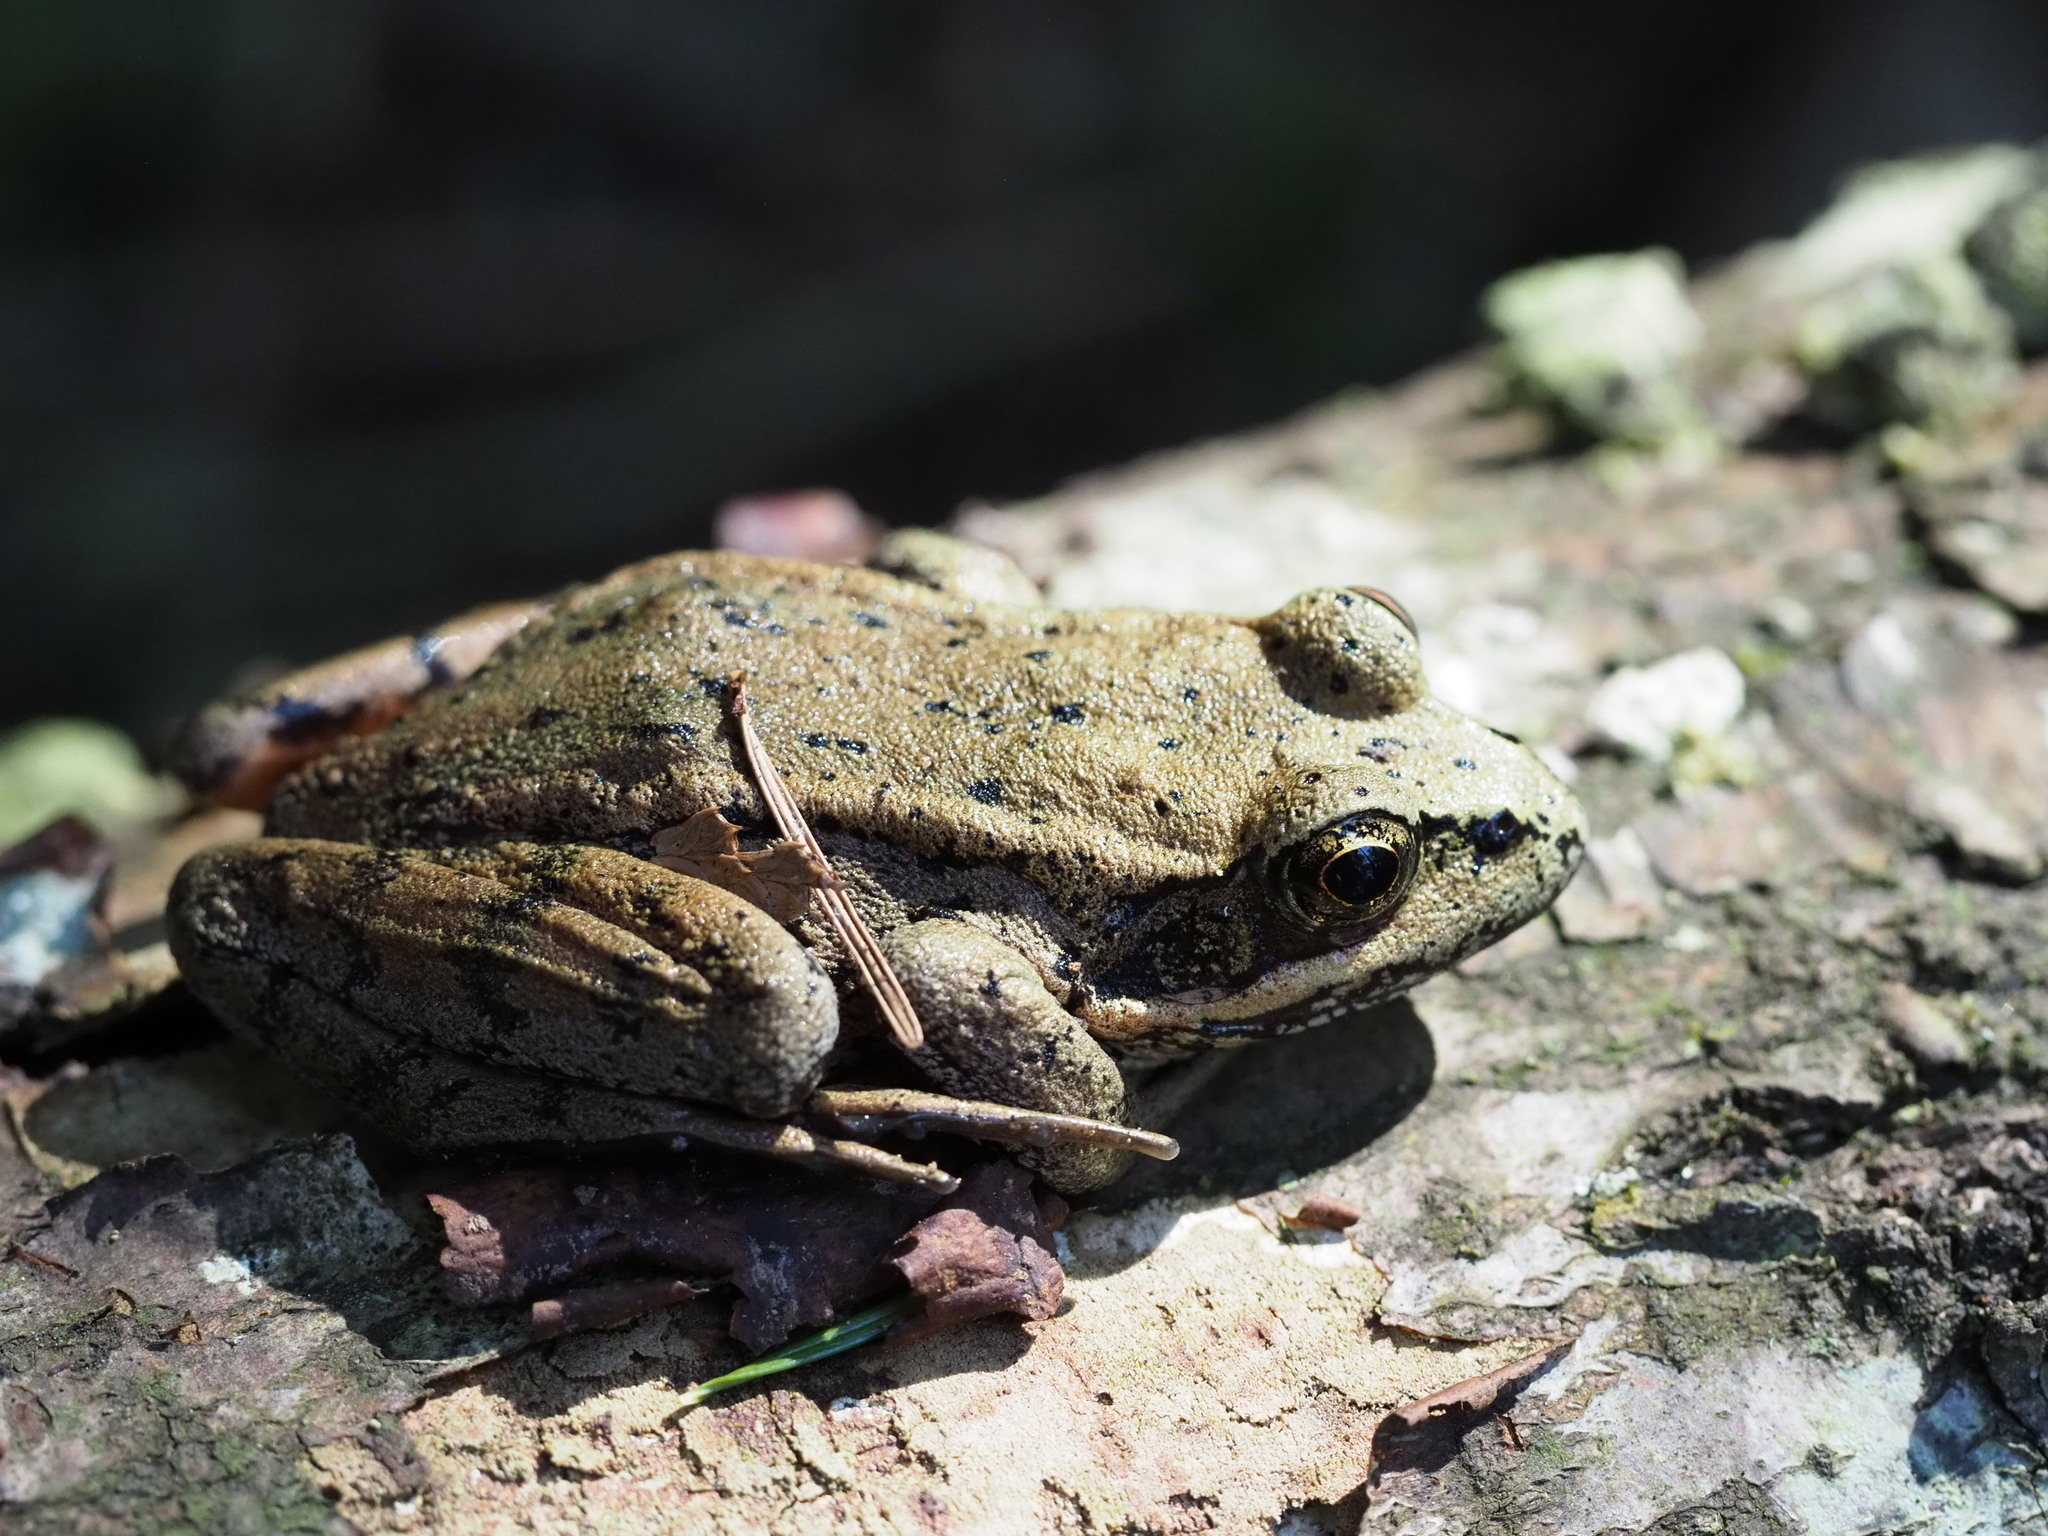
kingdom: Animalia
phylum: Chordata
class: Amphibia
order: Anura
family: Ranidae
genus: Rana
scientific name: Rana aurora
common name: Red-legged frog
